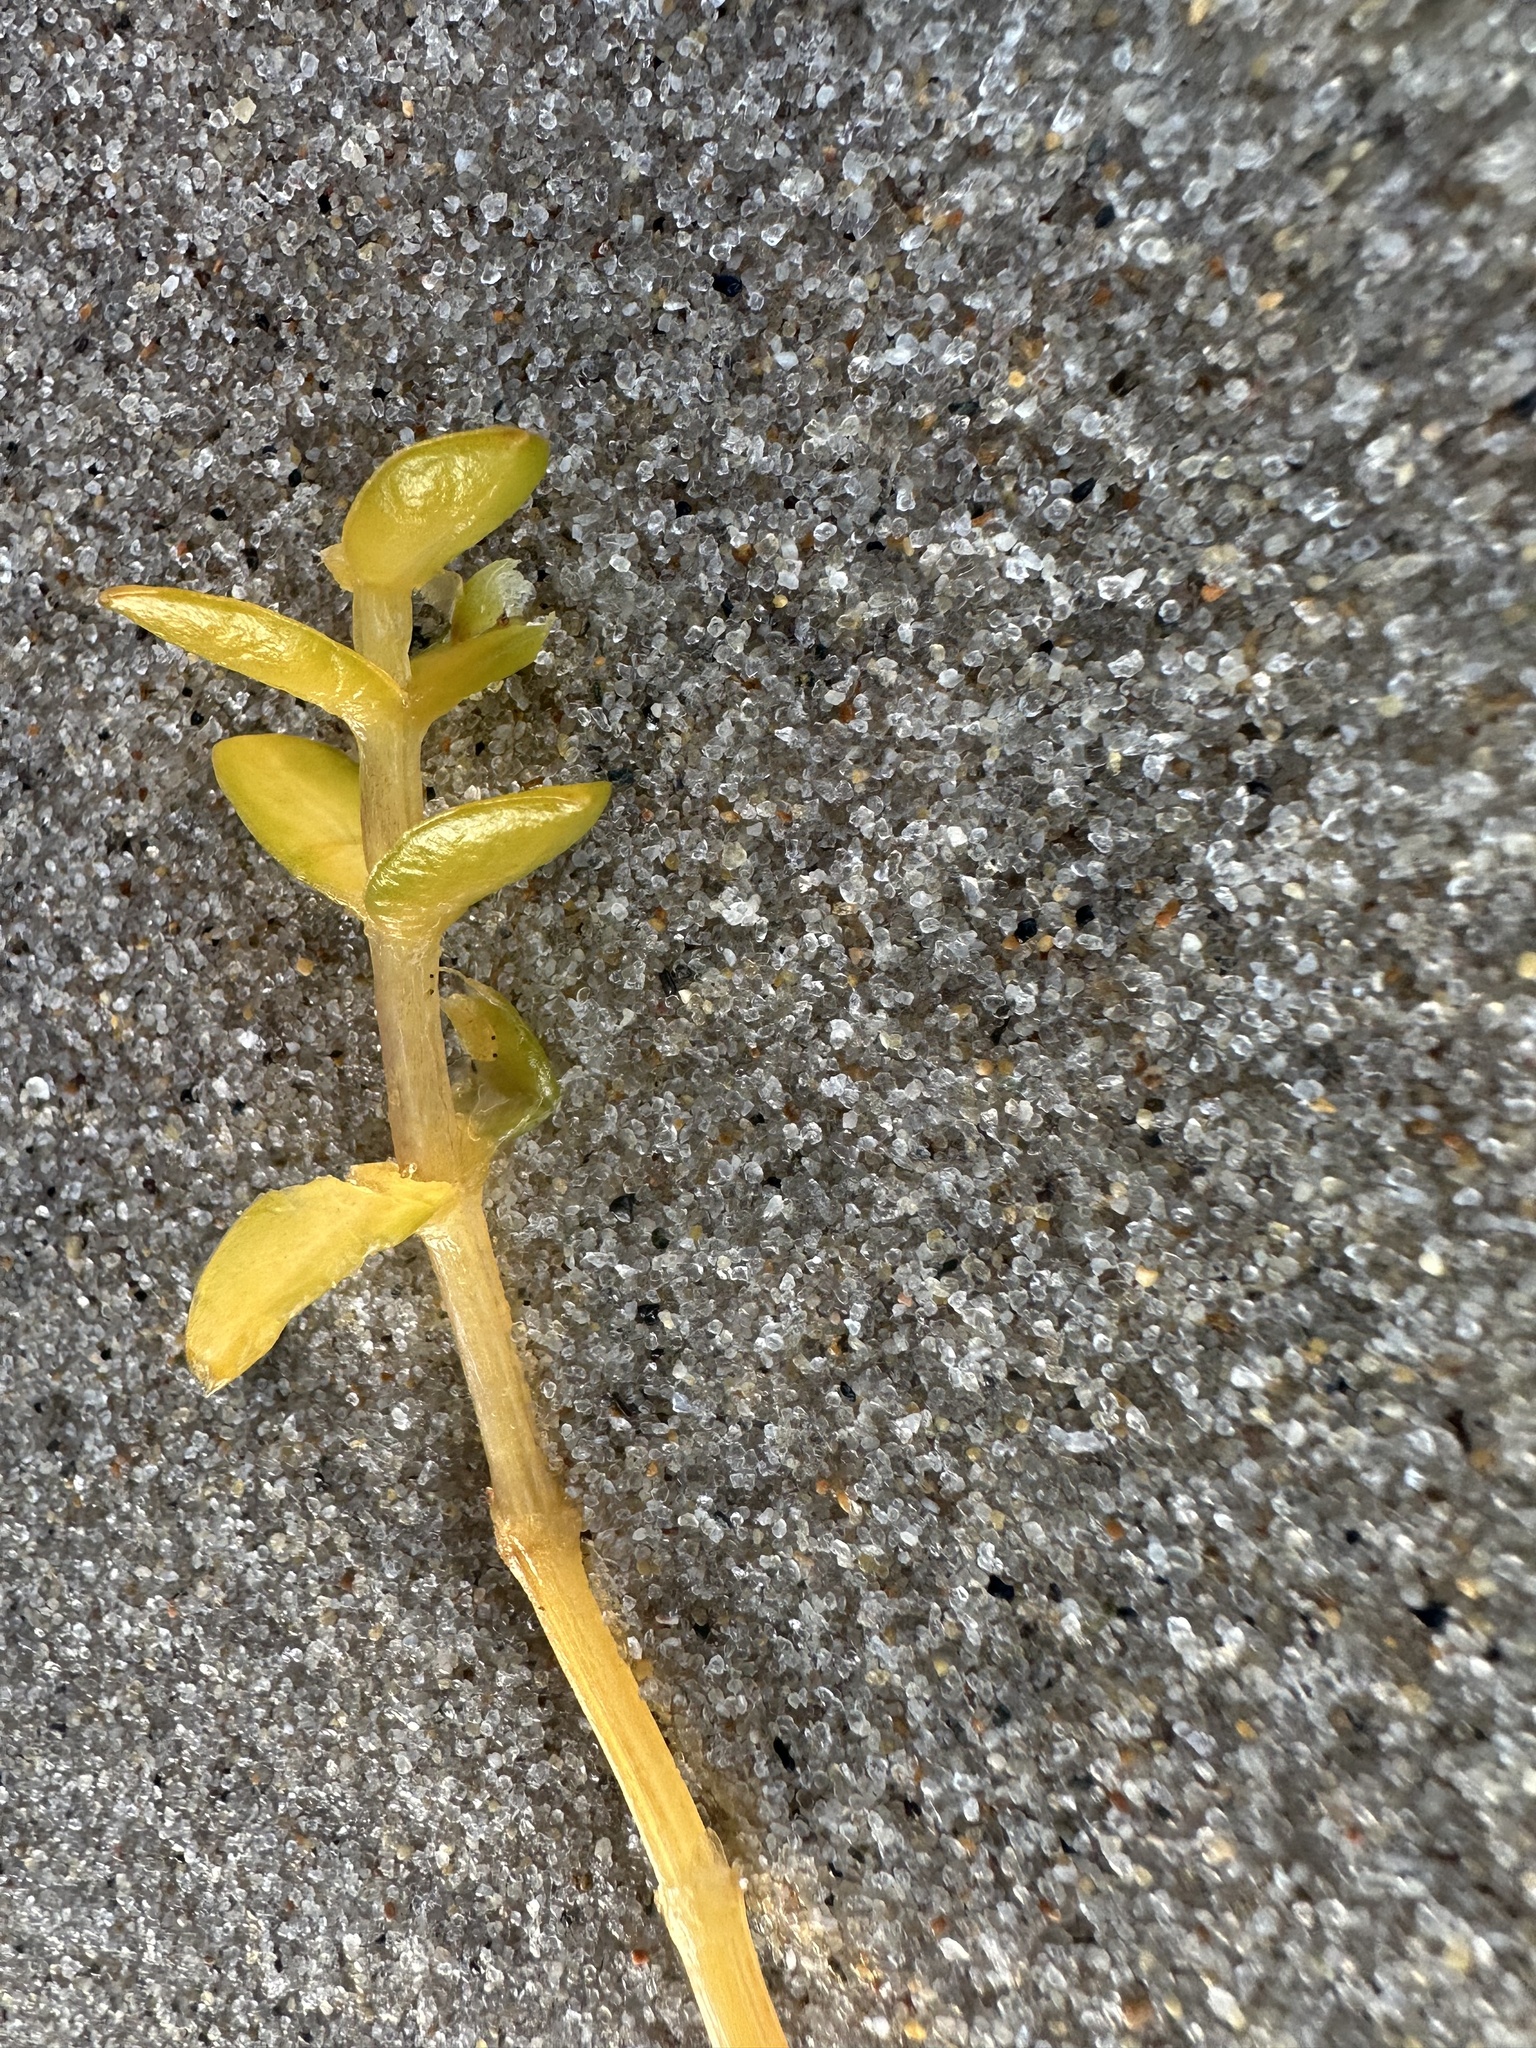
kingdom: Plantae
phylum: Tracheophyta
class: Magnoliopsida
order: Caryophyllales
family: Caryophyllaceae
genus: Honckenya
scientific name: Honckenya peploides
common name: Sea sandwort
